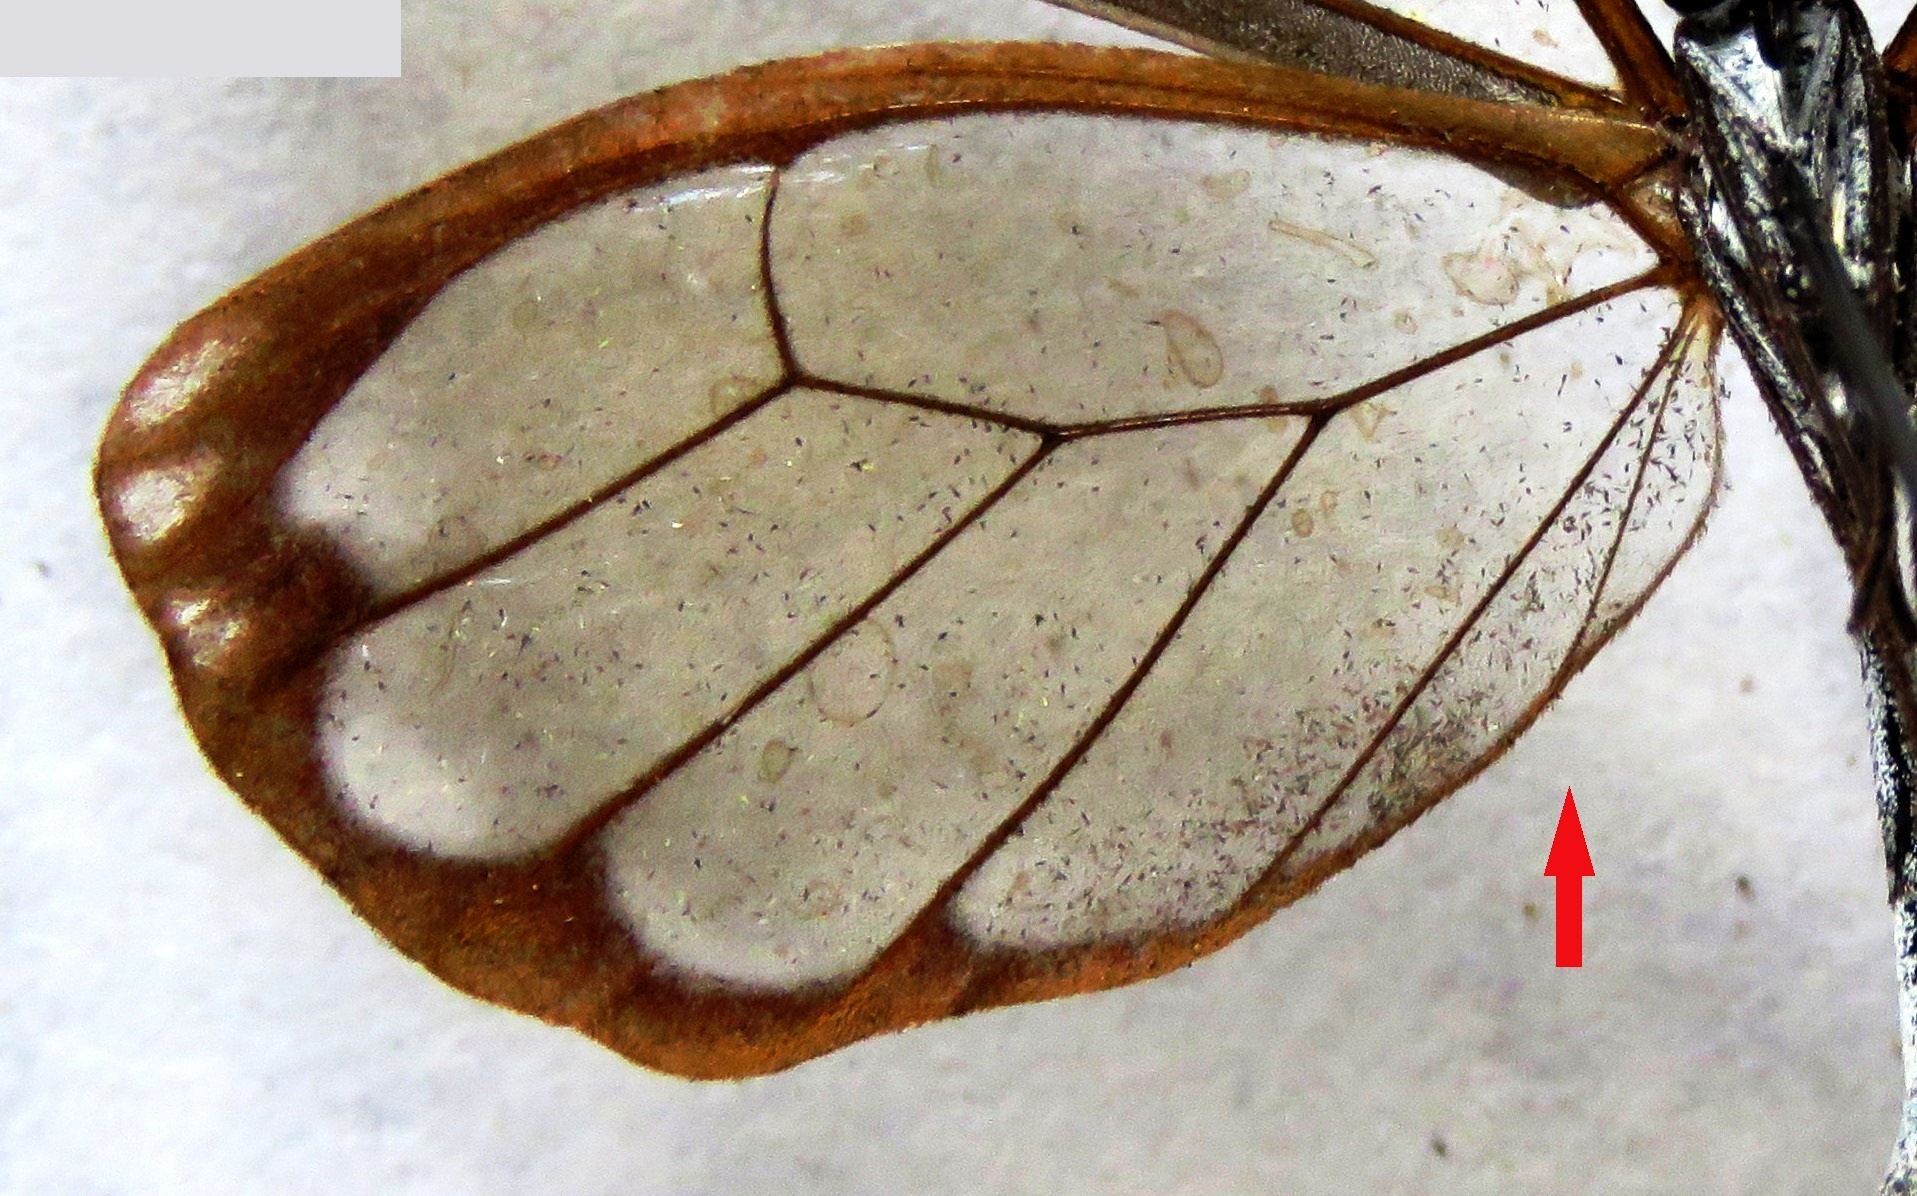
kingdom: Animalia
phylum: Arthropoda
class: Insecta
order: Lepidoptera
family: Nymphalidae
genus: Greta
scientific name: Greta annette
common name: White-spotted clearwing
